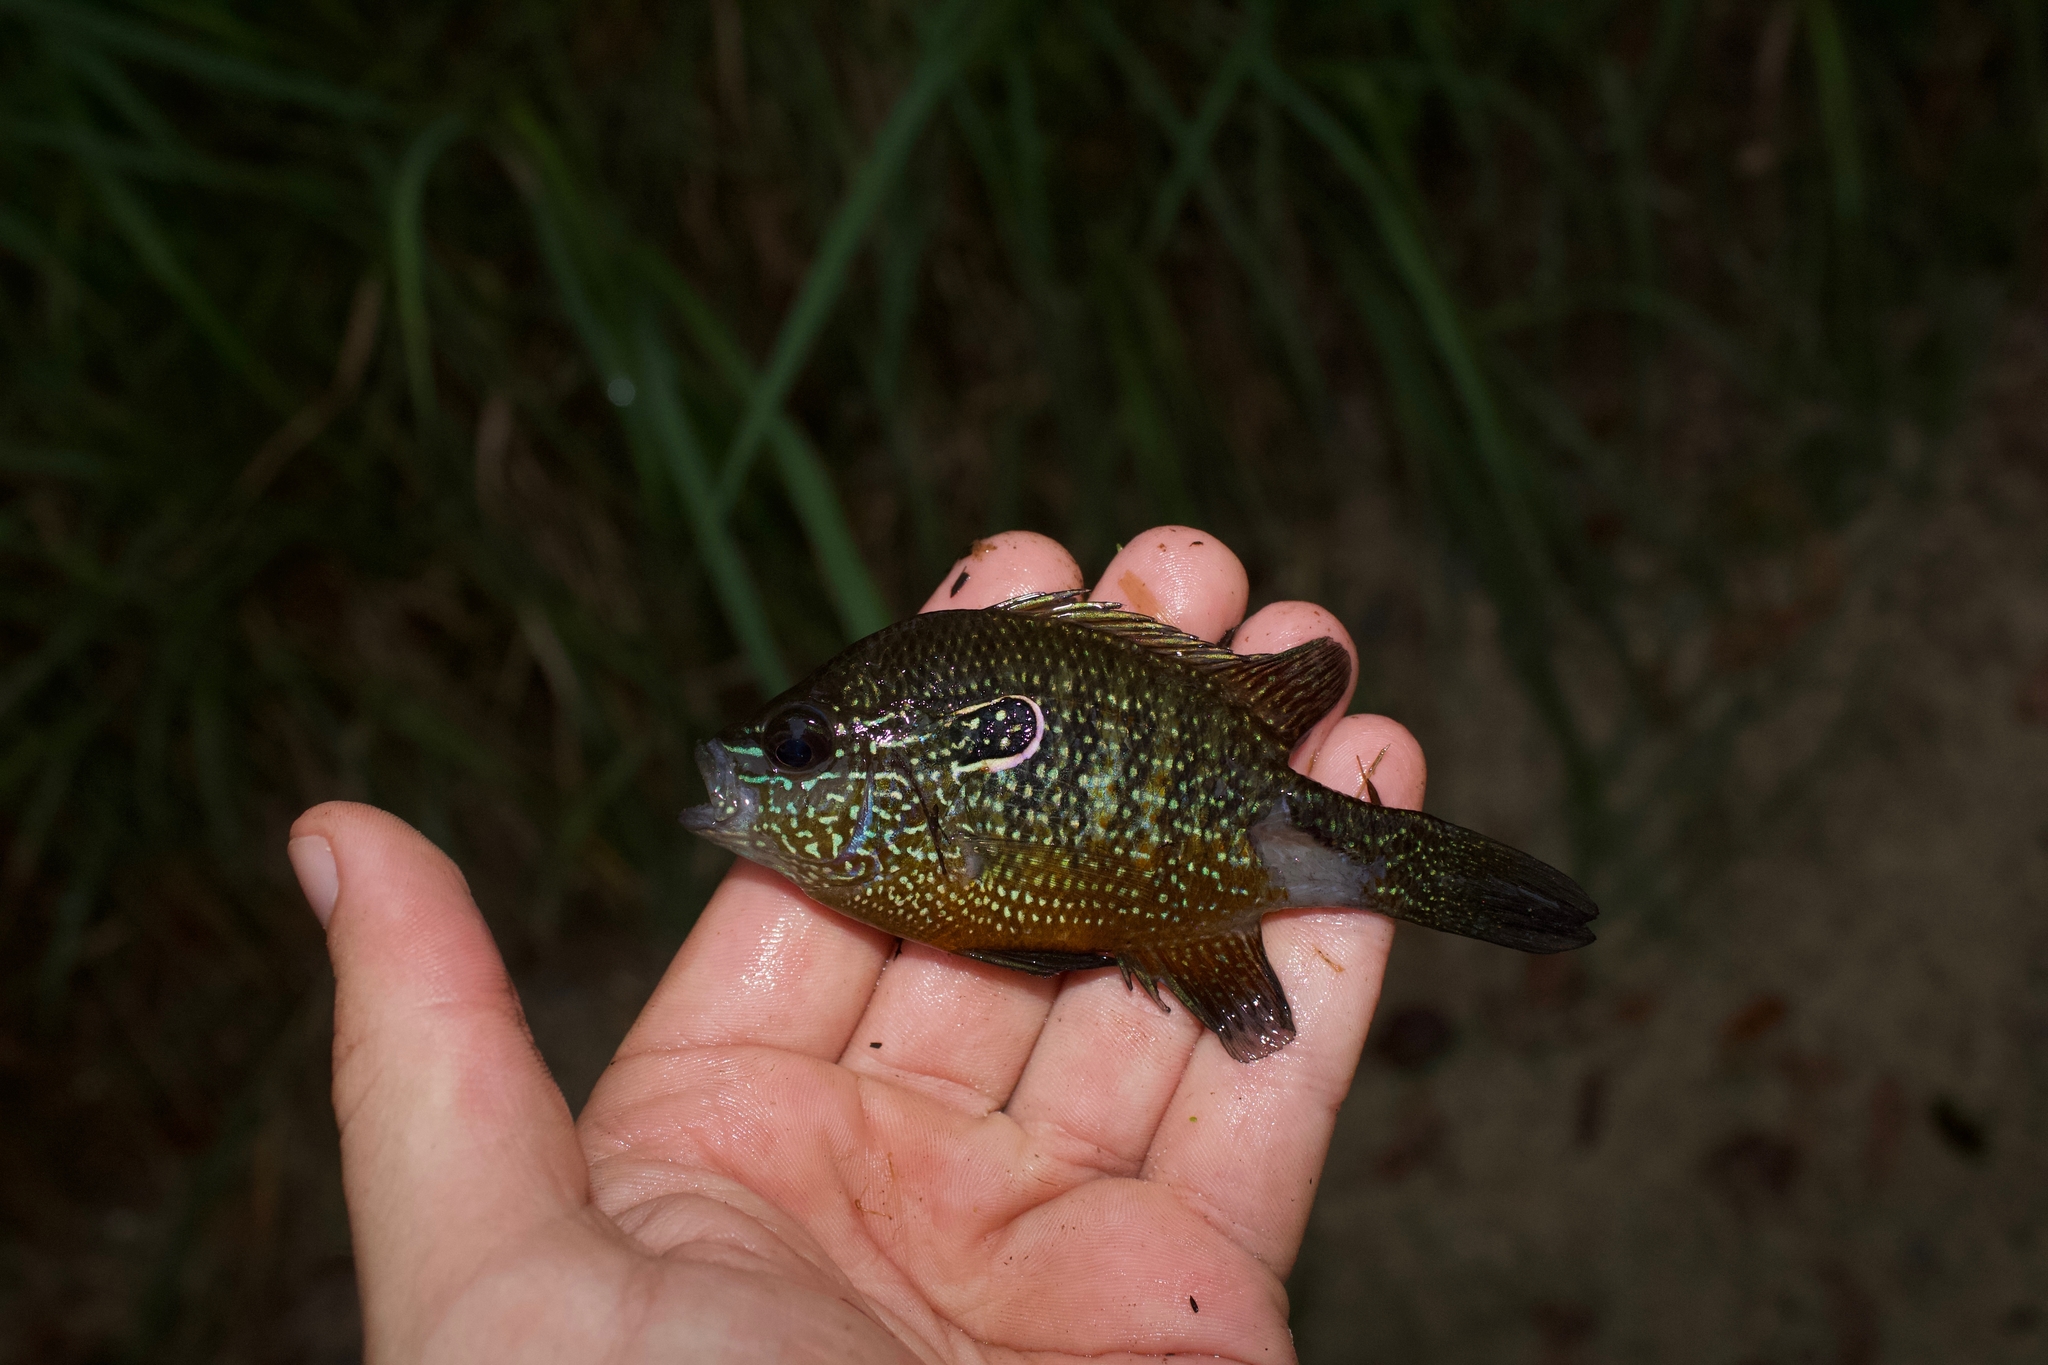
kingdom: Animalia
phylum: Chordata
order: Perciformes
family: Centrarchidae
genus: Lepomis
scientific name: Lepomis marginatus
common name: Dollar sunfish
